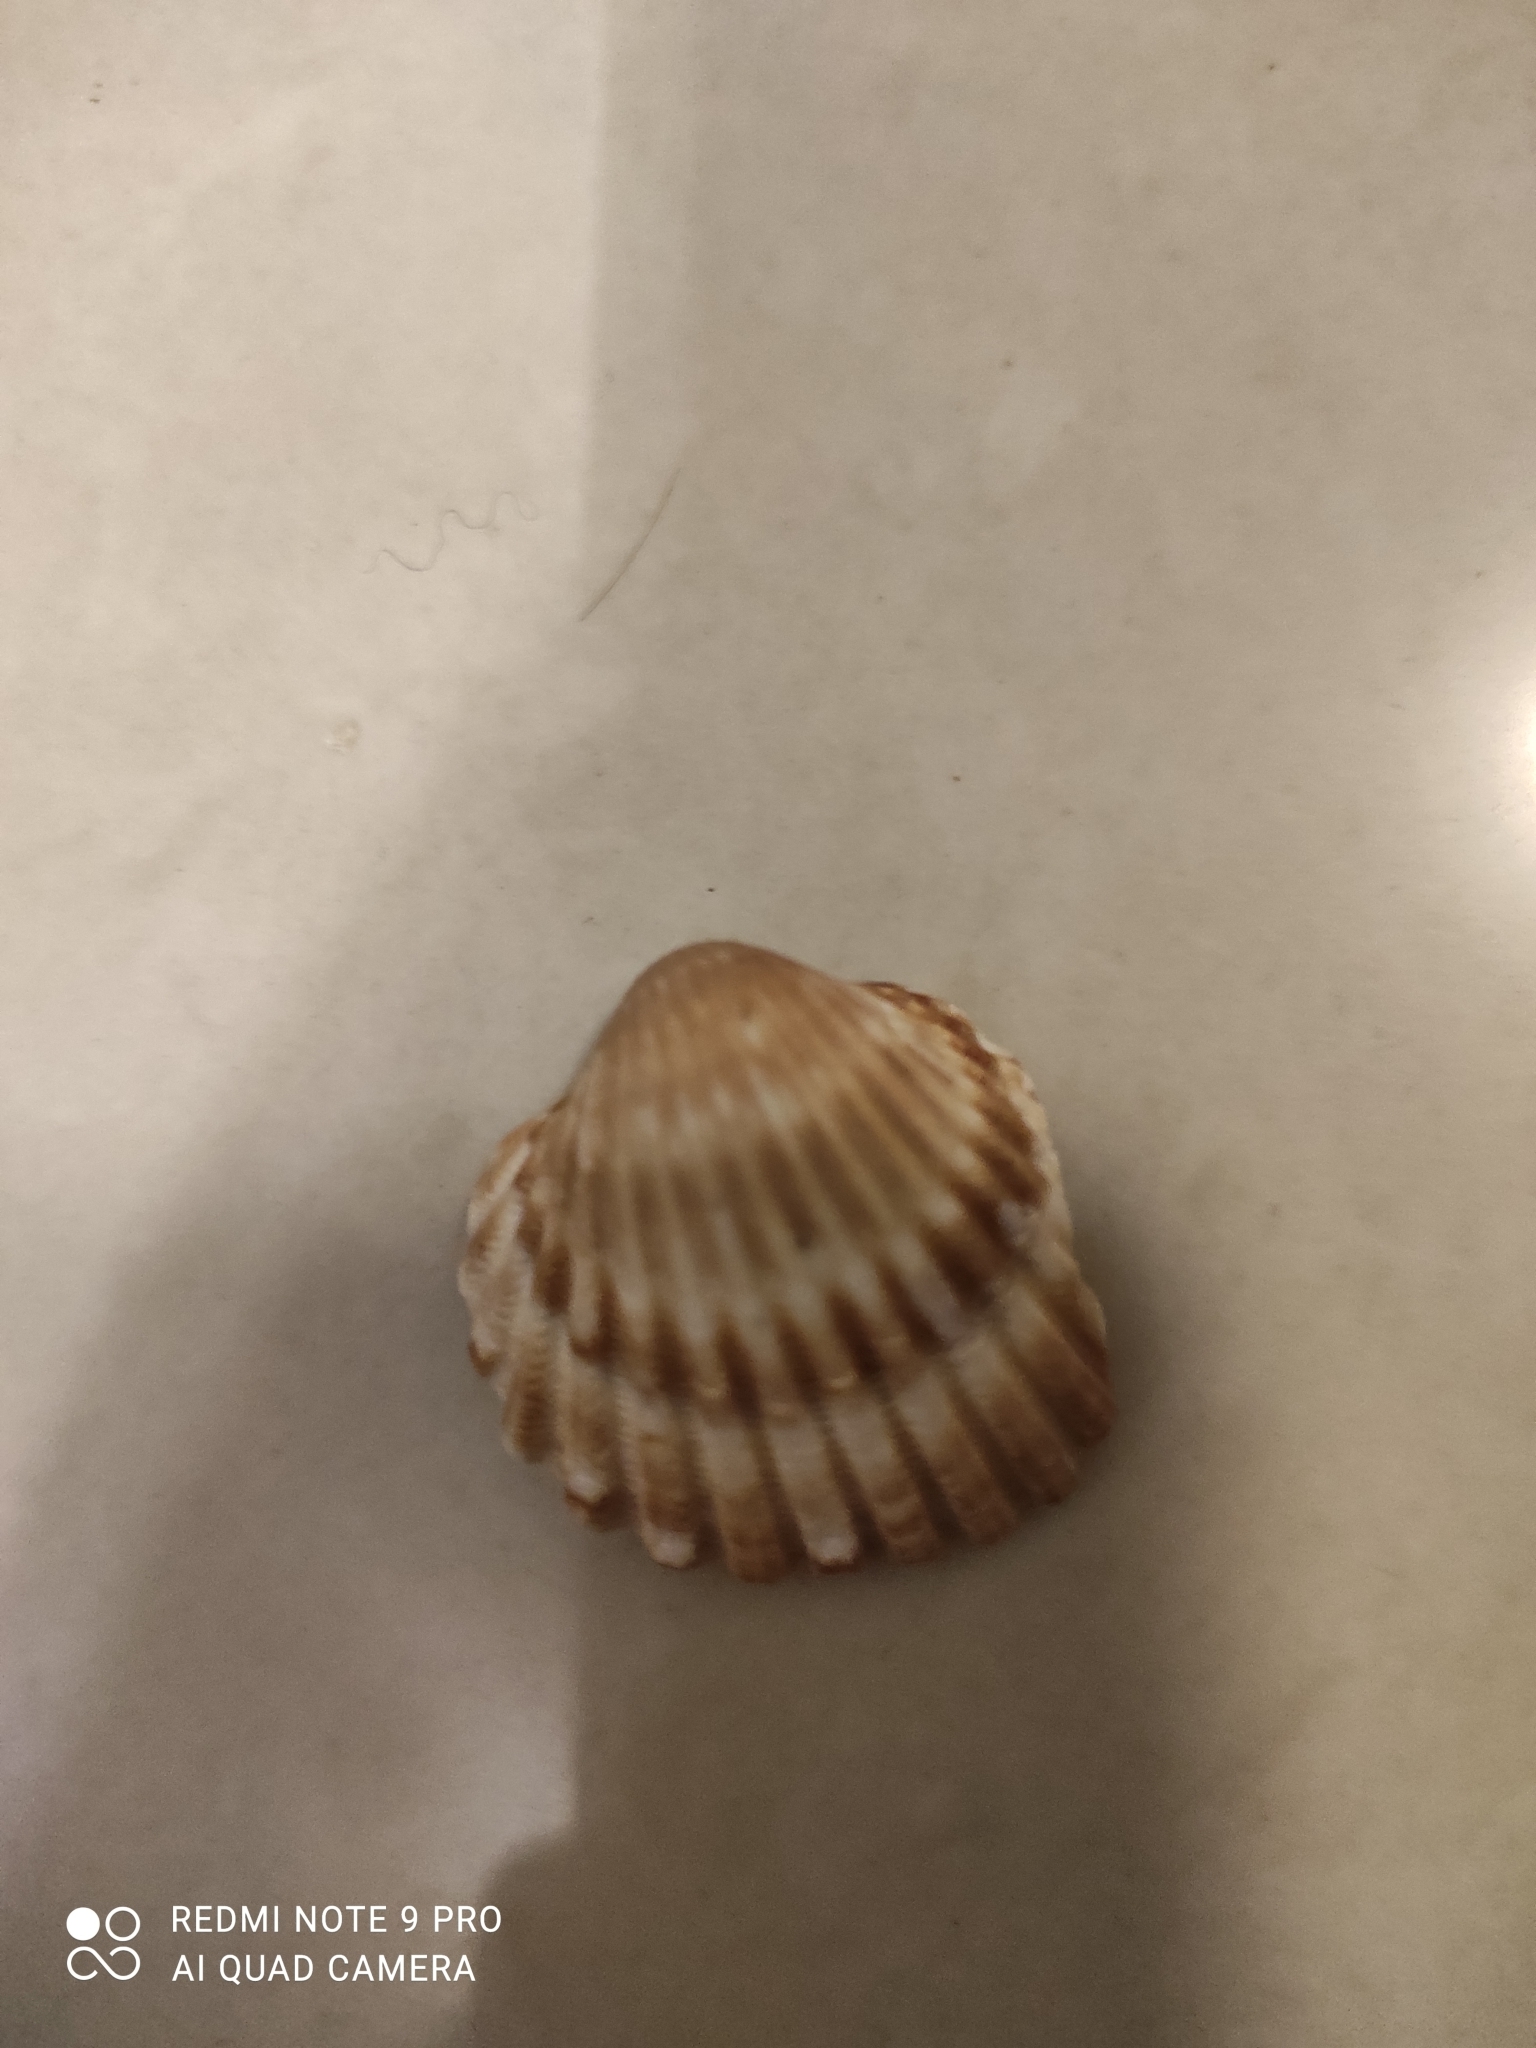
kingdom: Animalia
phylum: Mollusca
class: Bivalvia
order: Cardiida
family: Cardiidae
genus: Acanthocardia
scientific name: Acanthocardia tuberculata
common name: Rough cockle
